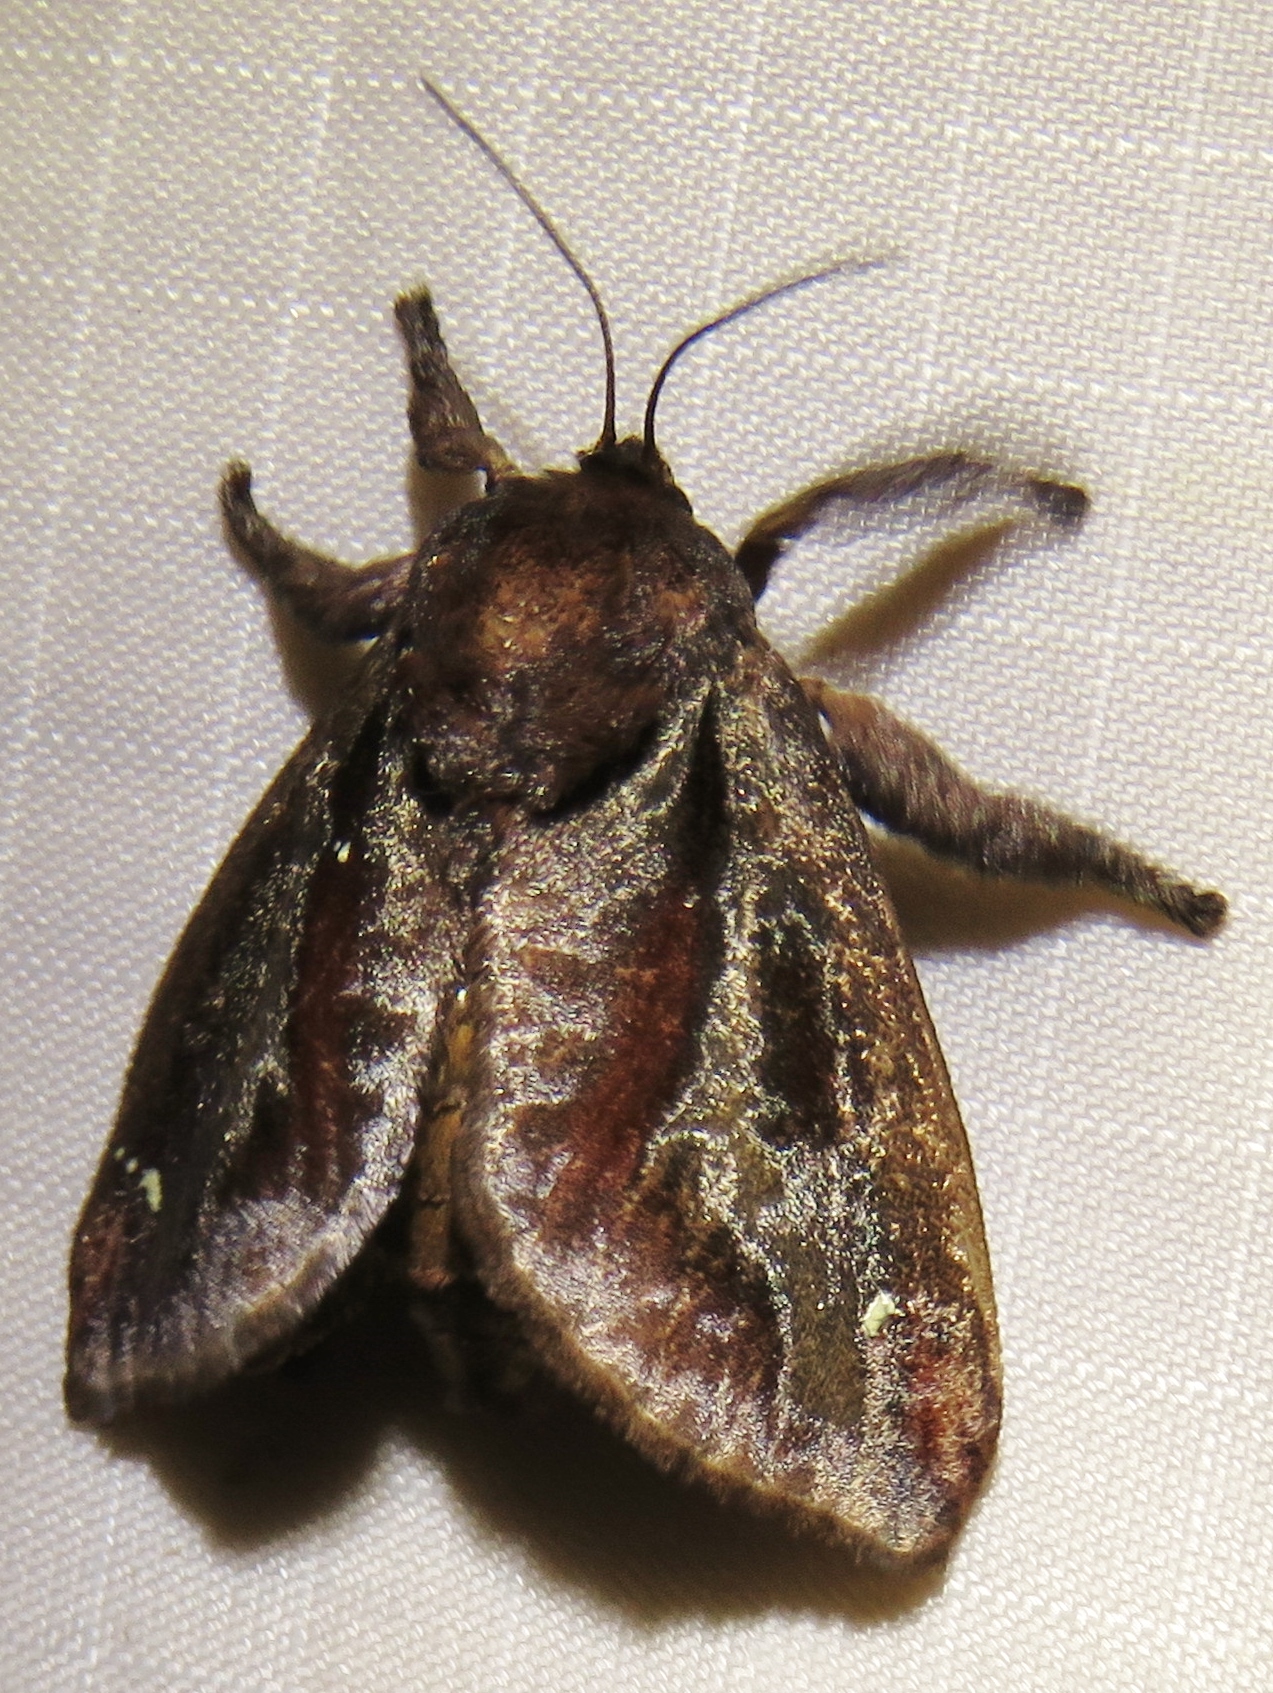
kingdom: Animalia
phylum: Arthropoda
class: Insecta
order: Lepidoptera
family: Limacodidae
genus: Acharia
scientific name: Acharia stimulea
